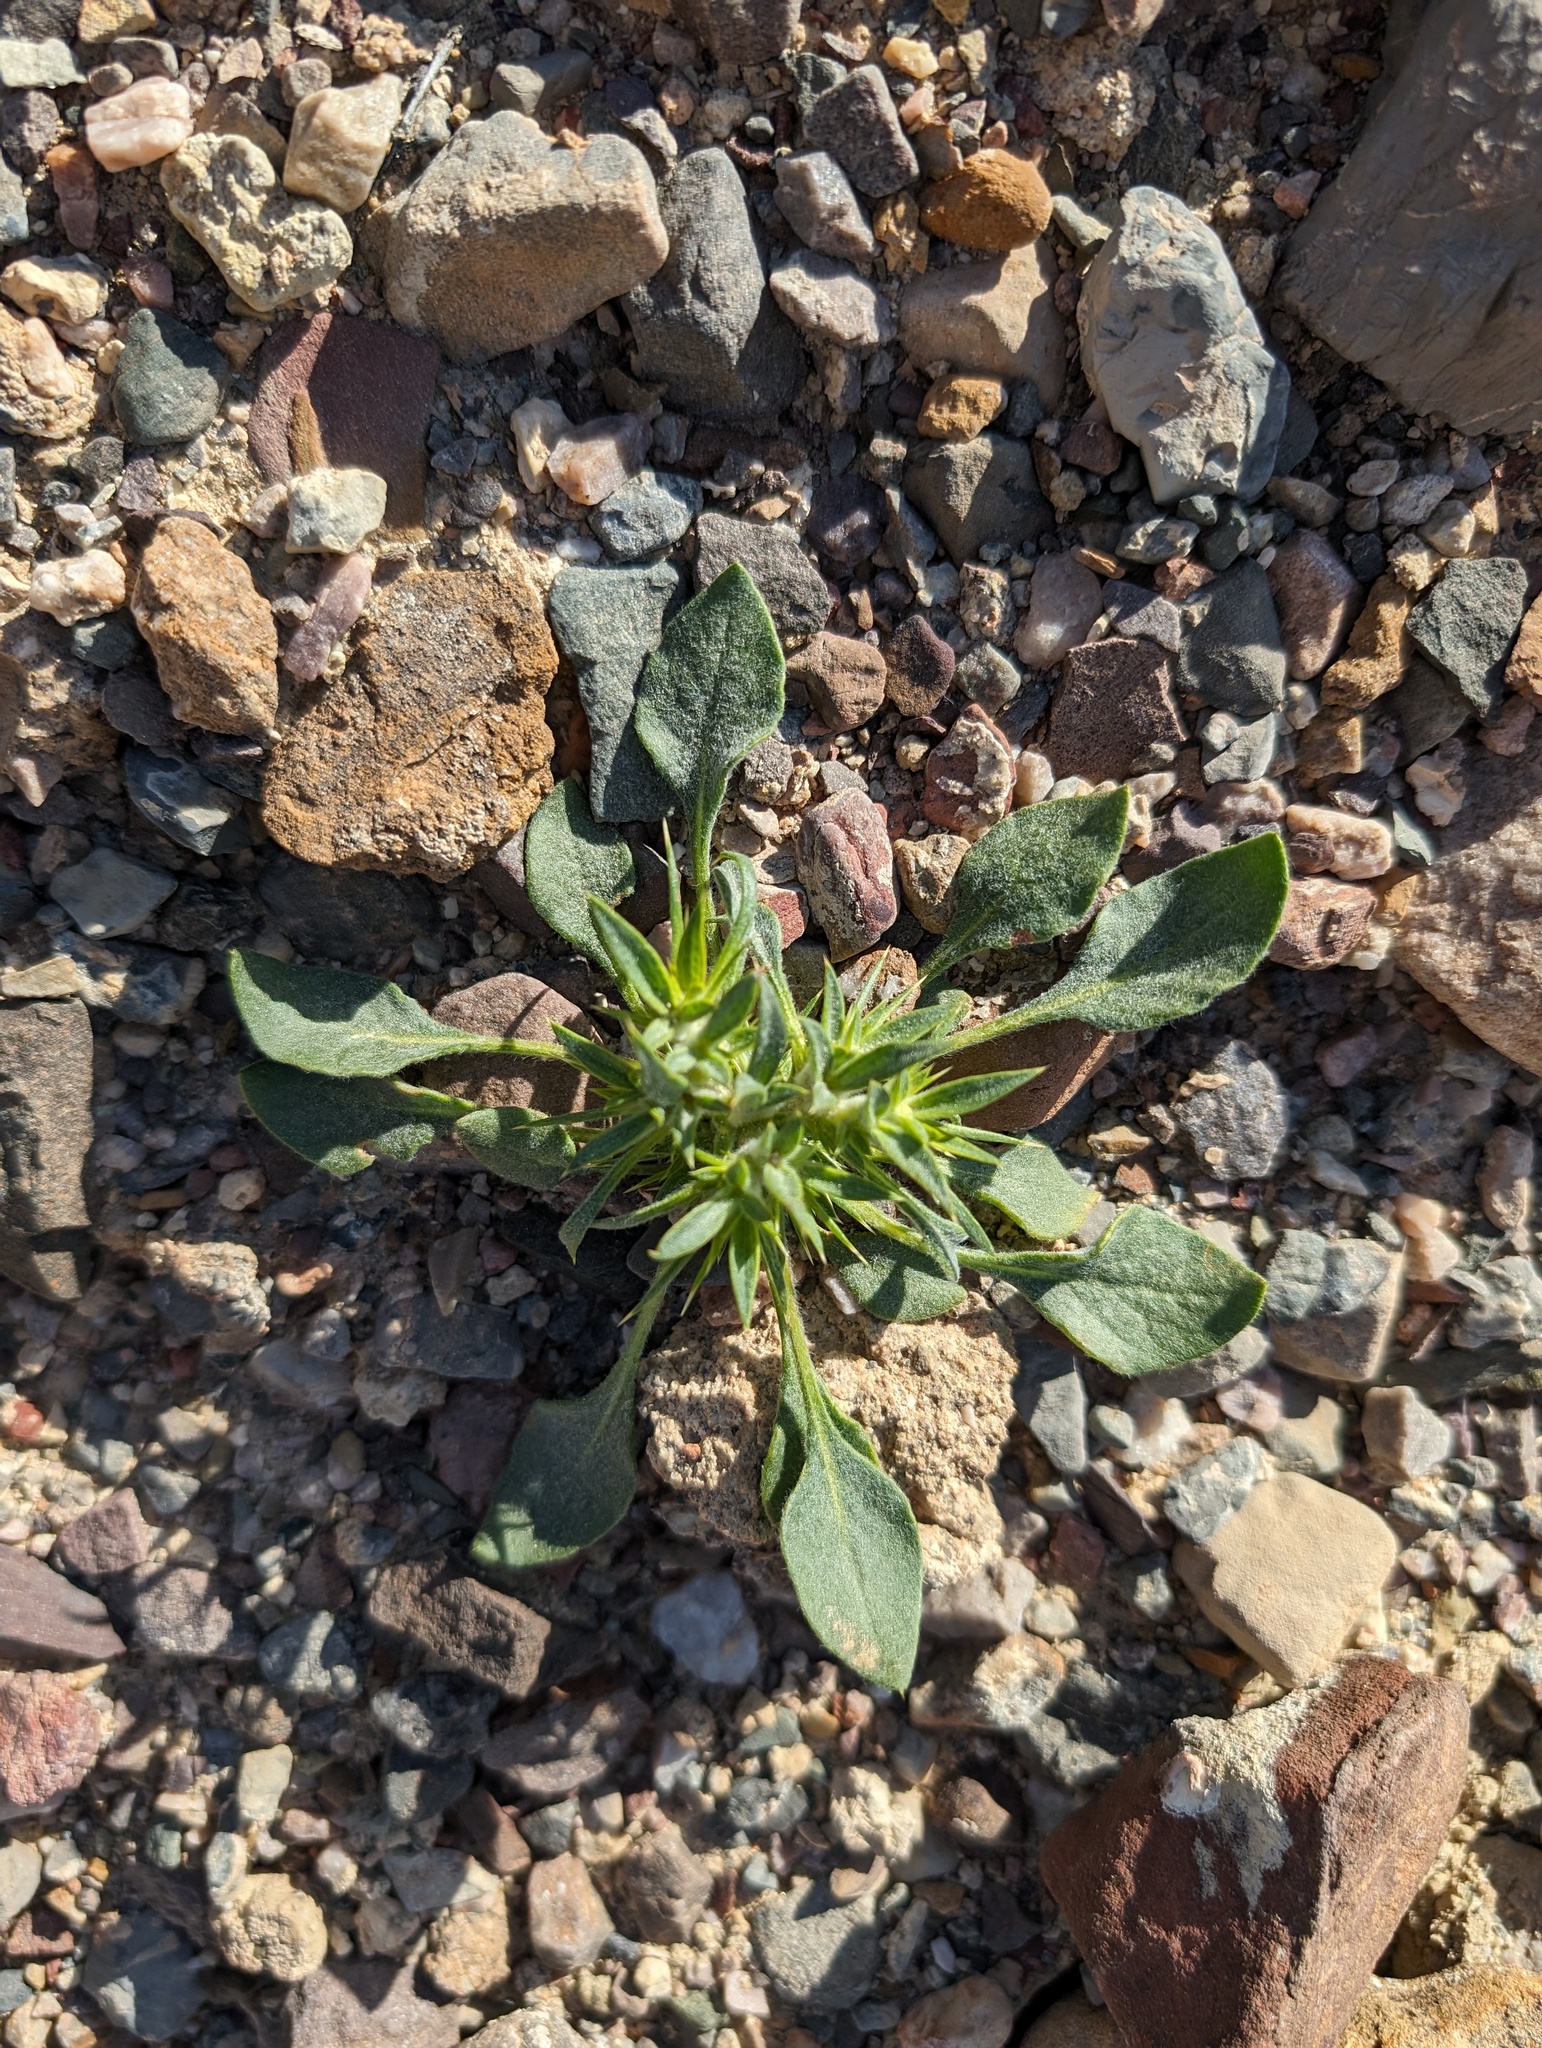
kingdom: Plantae
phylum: Tracheophyta
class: Magnoliopsida
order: Caryophyllales
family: Polygonaceae
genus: Chorizanthe
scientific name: Chorizanthe rigida
